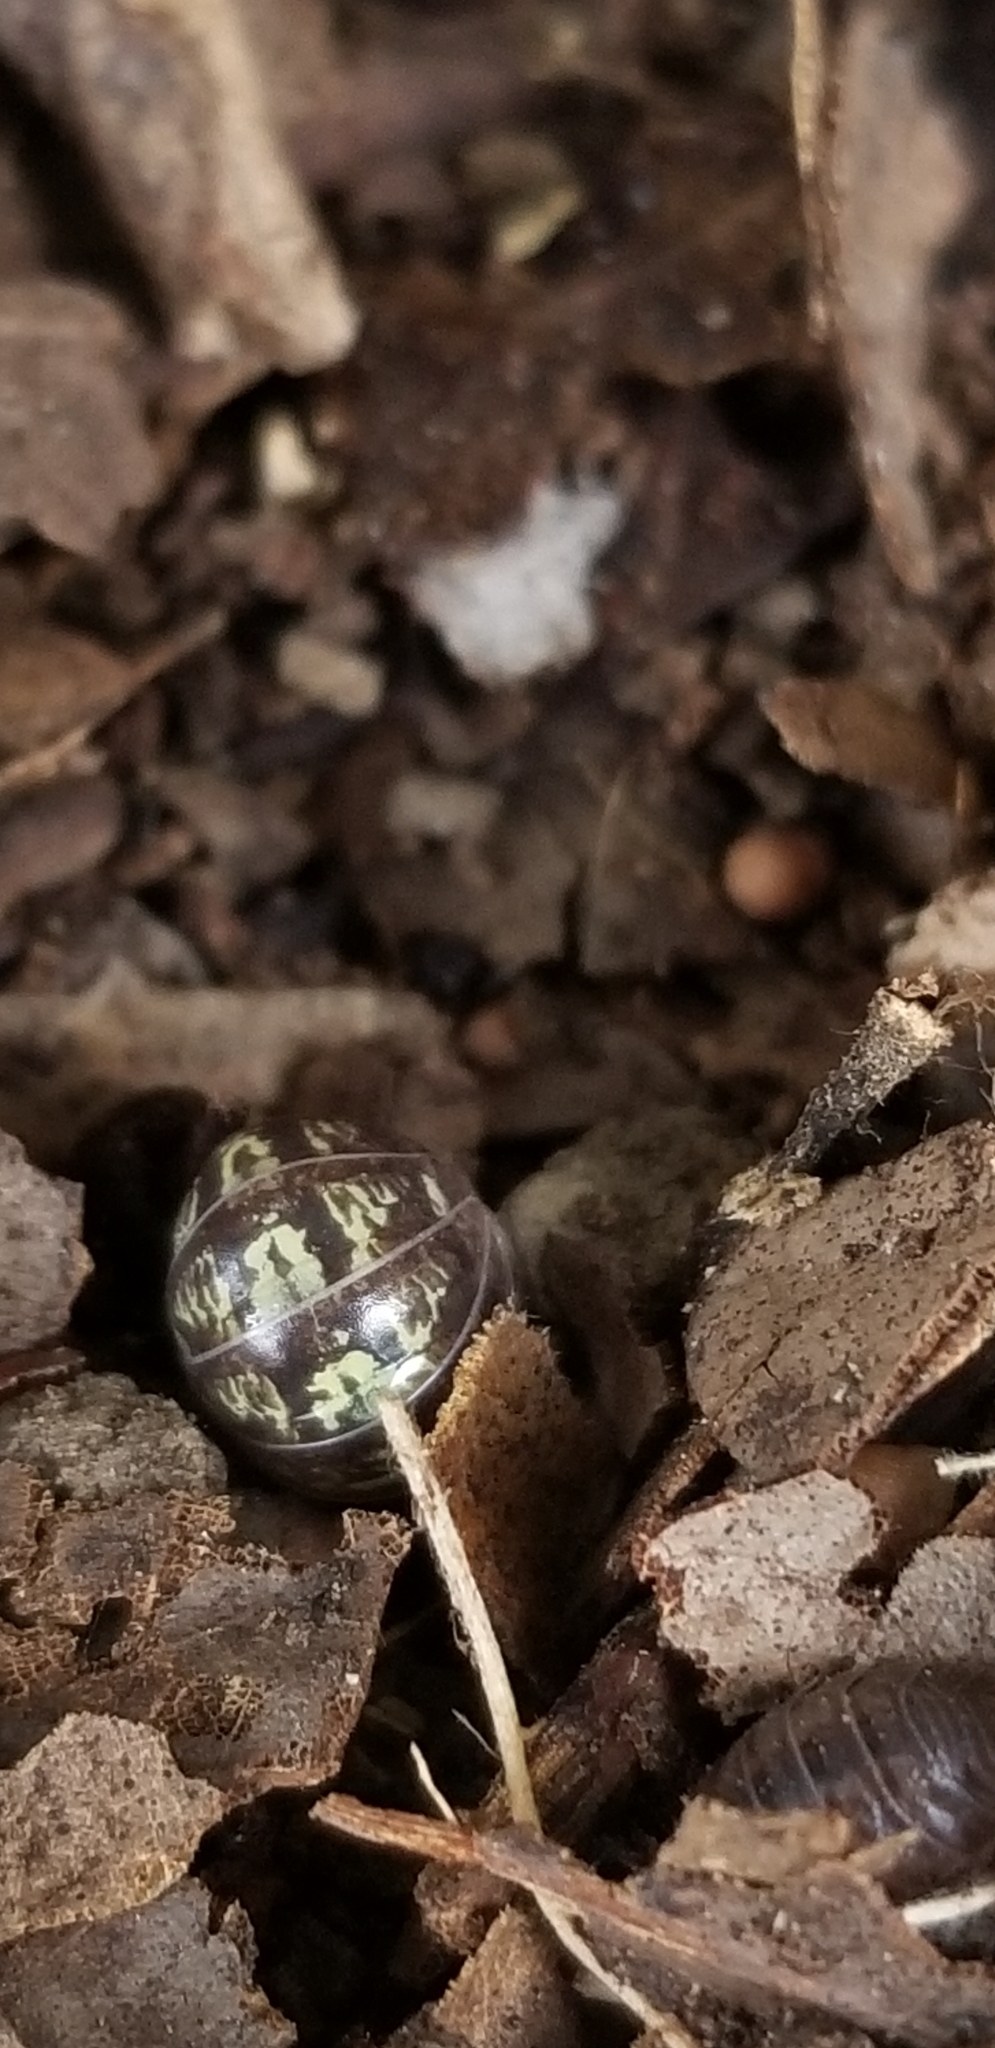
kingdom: Animalia
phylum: Arthropoda
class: Malacostraca
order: Isopoda
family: Armadillidiidae
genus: Armadillidium
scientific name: Armadillidium vulgare
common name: Common pill woodlouse
